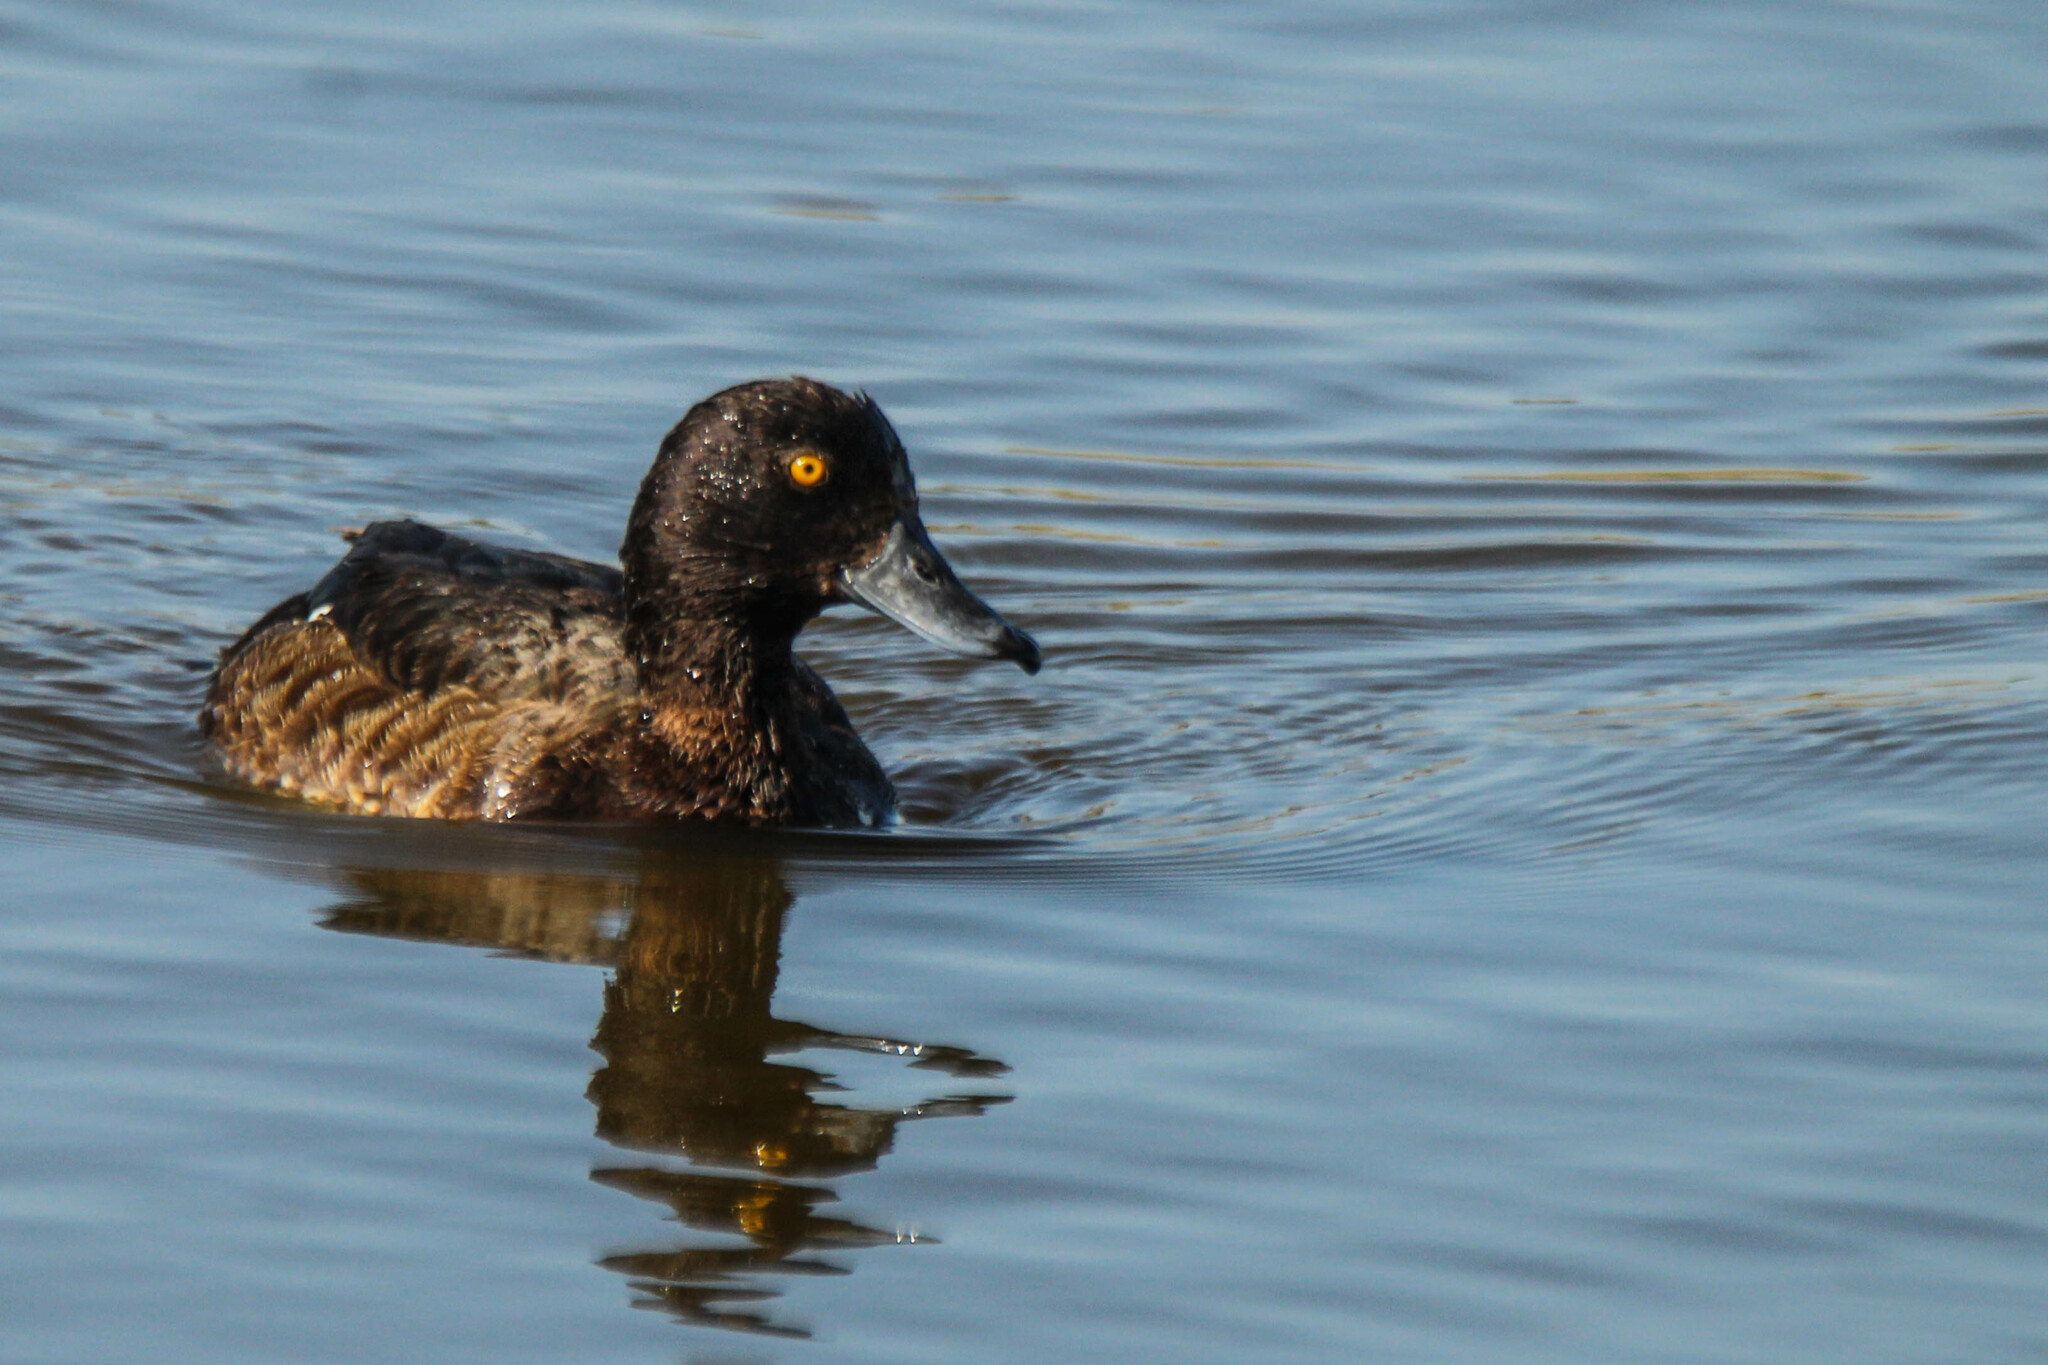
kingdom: Animalia
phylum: Chordata
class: Aves
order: Anseriformes
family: Anatidae
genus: Aythya
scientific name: Aythya fuligula
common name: Tufted duck
